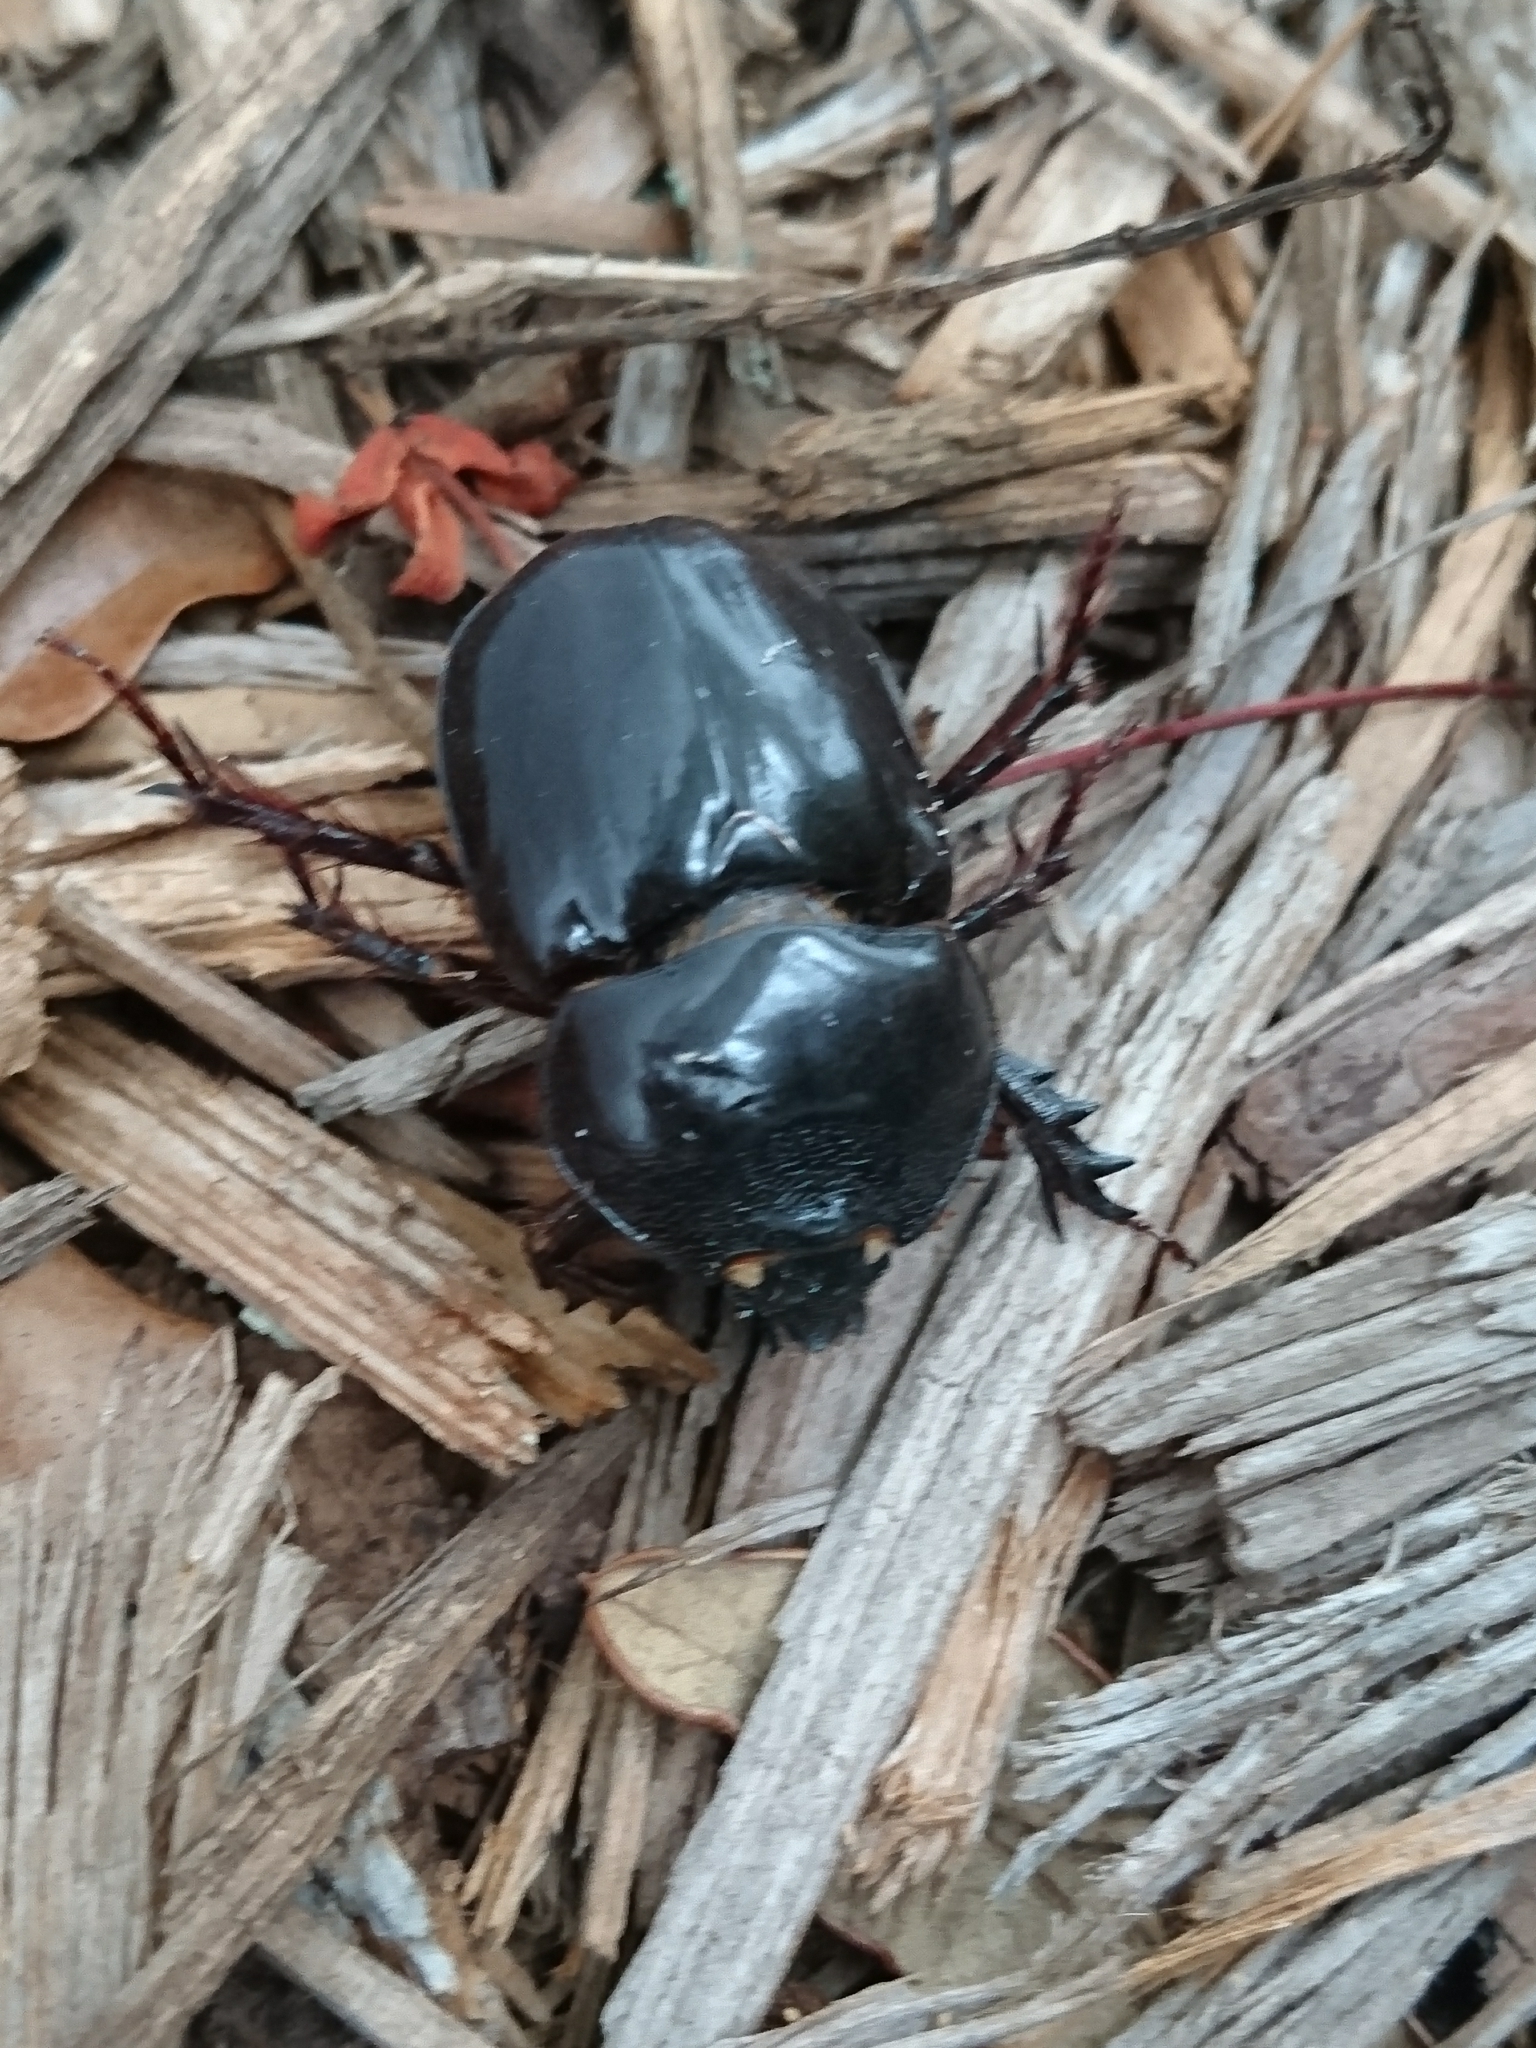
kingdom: Animalia
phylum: Arthropoda
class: Insecta
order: Coleoptera
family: Scarabaeidae
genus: Strategus
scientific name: Strategus antaeus
